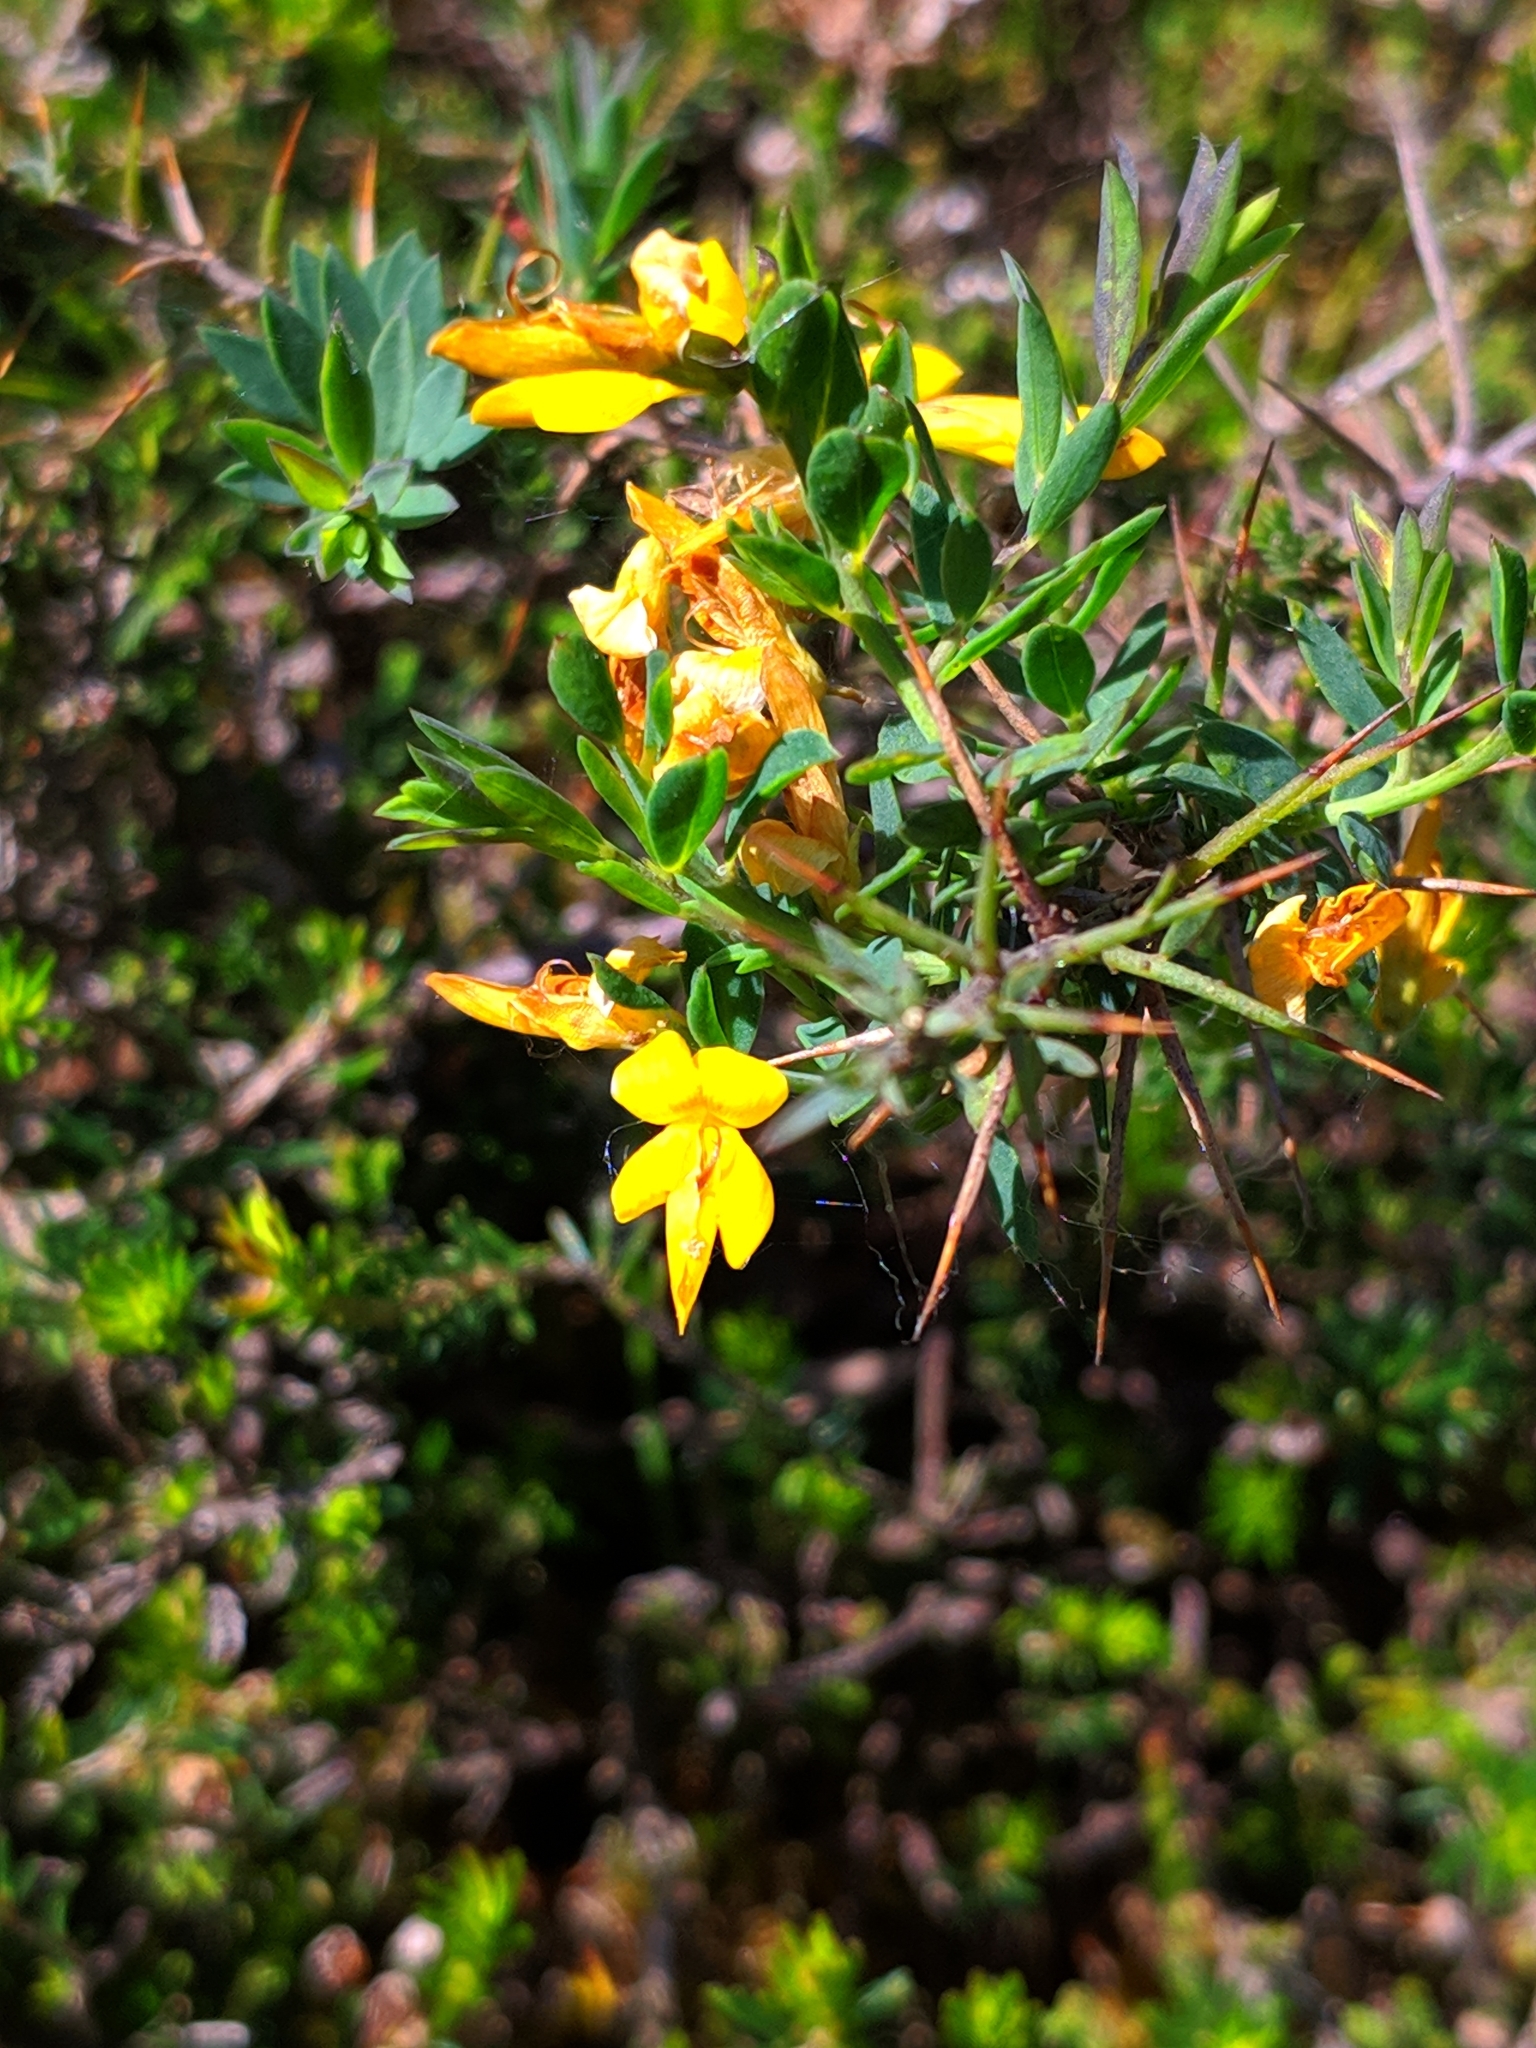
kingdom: Plantae
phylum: Tracheophyta
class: Magnoliopsida
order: Fabales
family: Fabaceae
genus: Genista
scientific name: Genista anglica
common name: Petty whin
